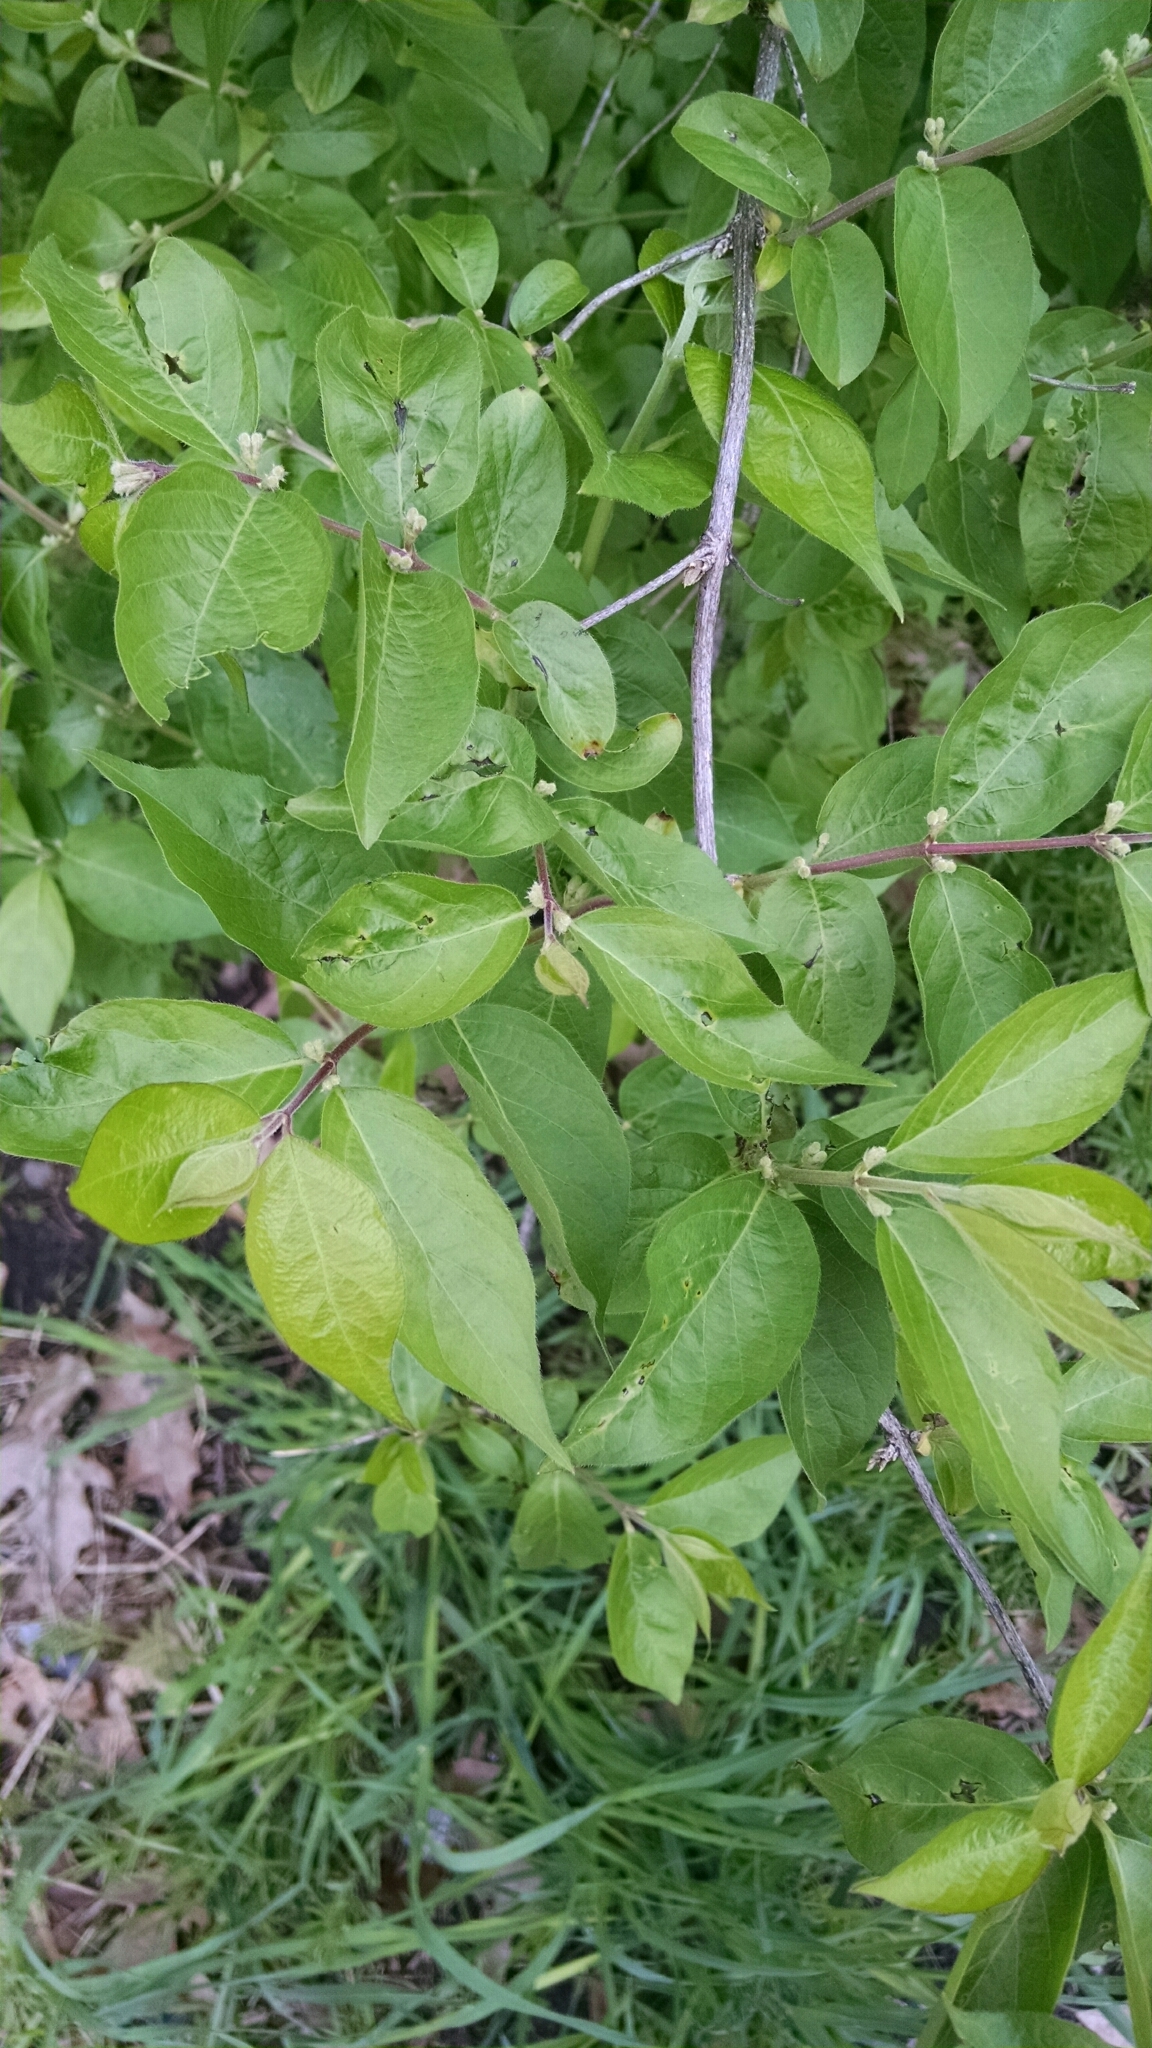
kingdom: Plantae
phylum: Tracheophyta
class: Magnoliopsida
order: Dipsacales
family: Caprifoliaceae
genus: Lonicera
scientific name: Lonicera maackii
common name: Amur honeysuckle
